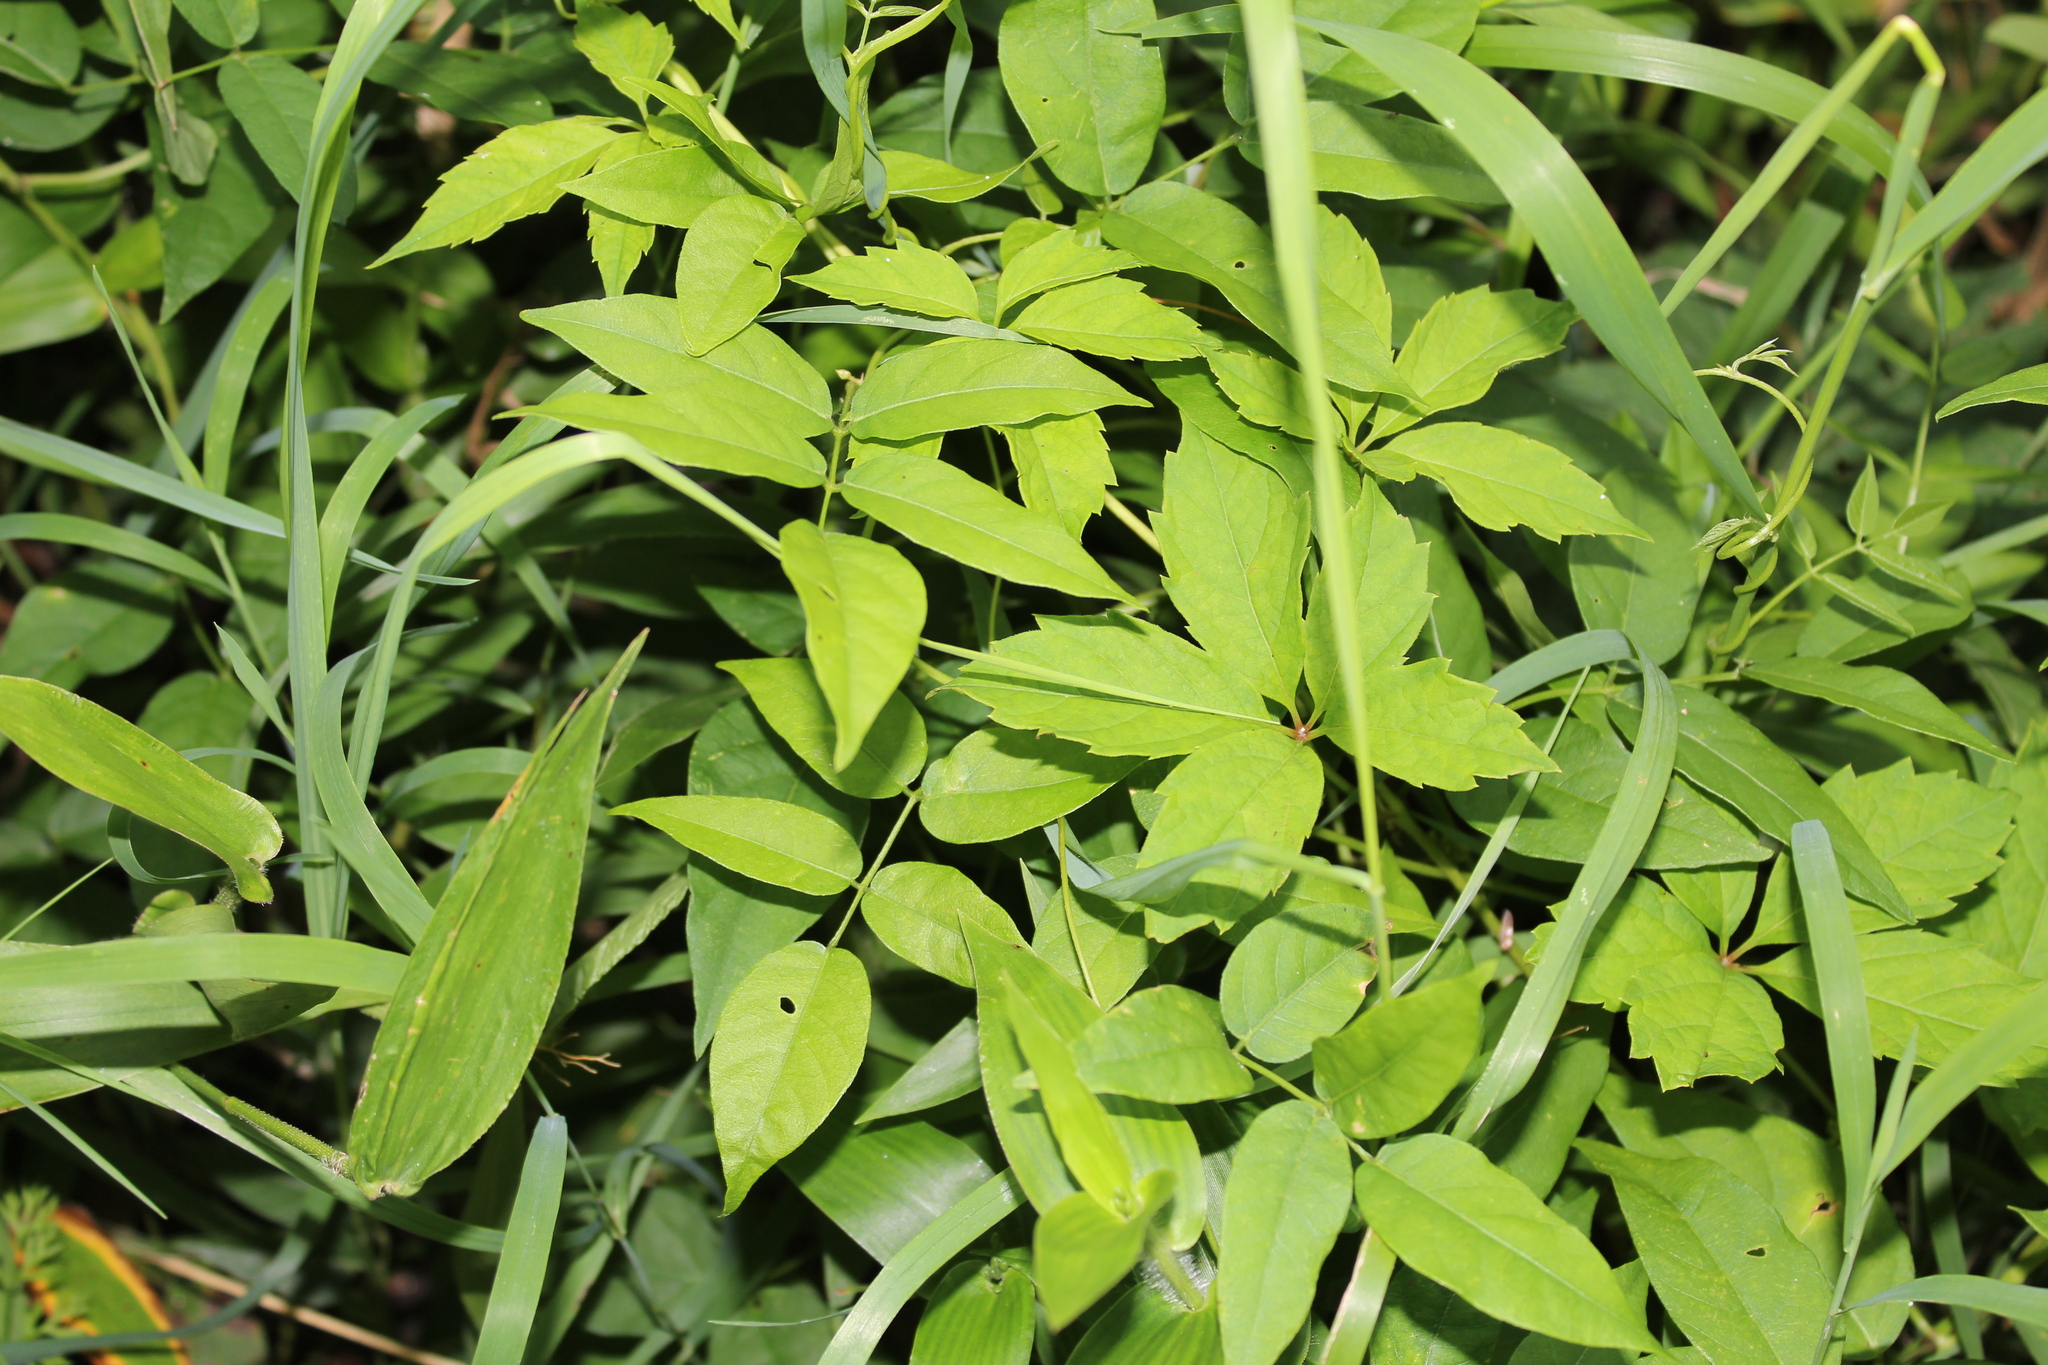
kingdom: Plantae
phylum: Tracheophyta
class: Magnoliopsida
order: Fabales
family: Fabaceae
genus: Apios
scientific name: Apios americana
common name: American potato-bean
